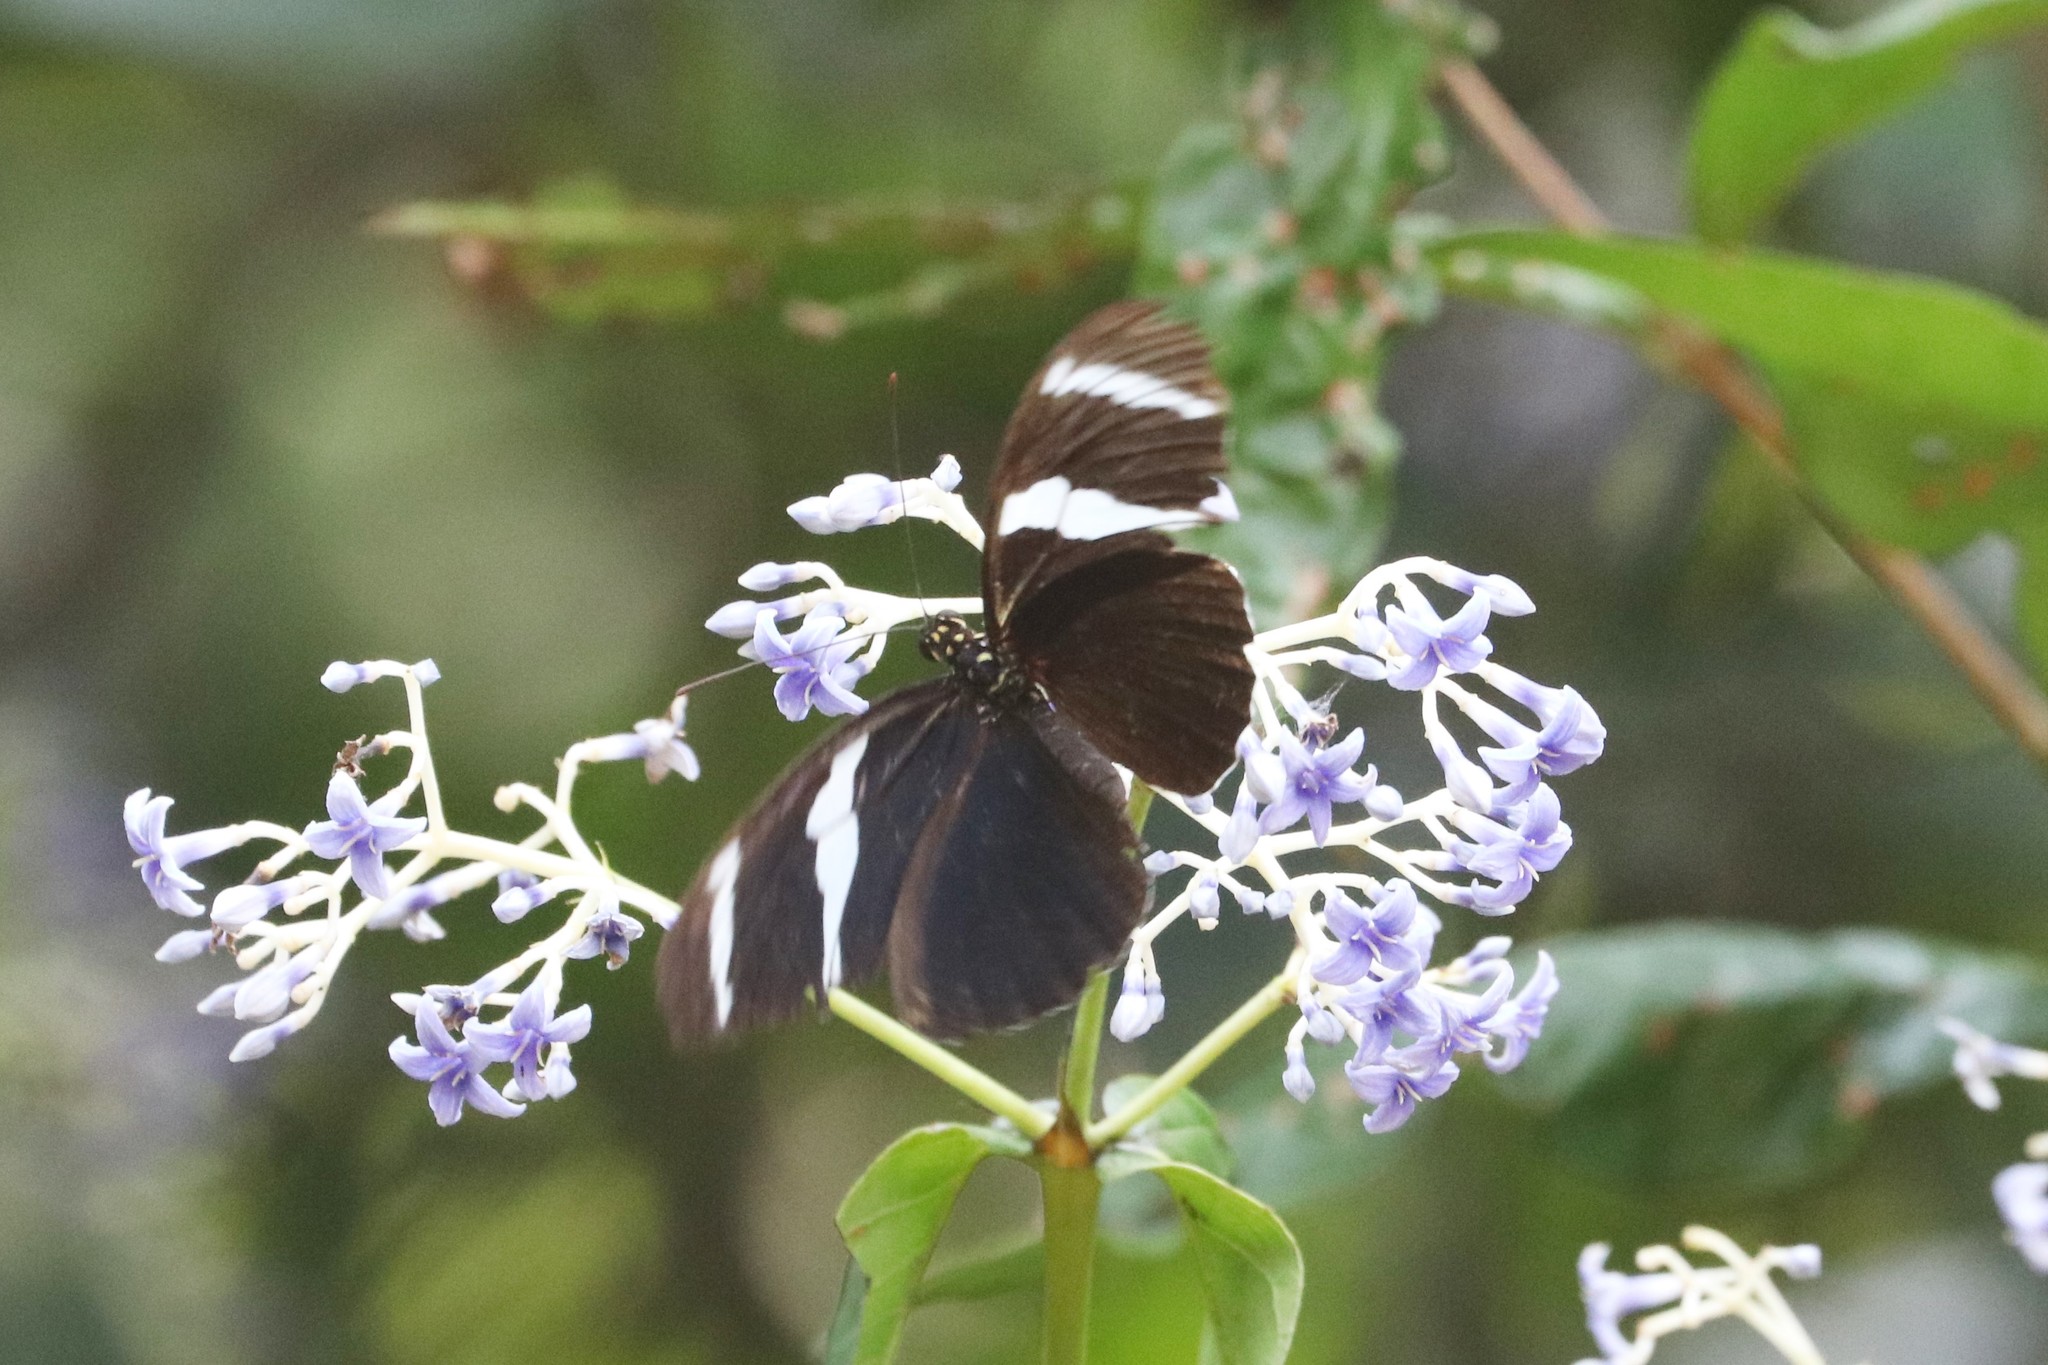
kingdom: Animalia
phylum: Arthropoda
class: Insecta
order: Lepidoptera
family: Nymphalidae
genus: Heliconius
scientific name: Heliconius antiochus
